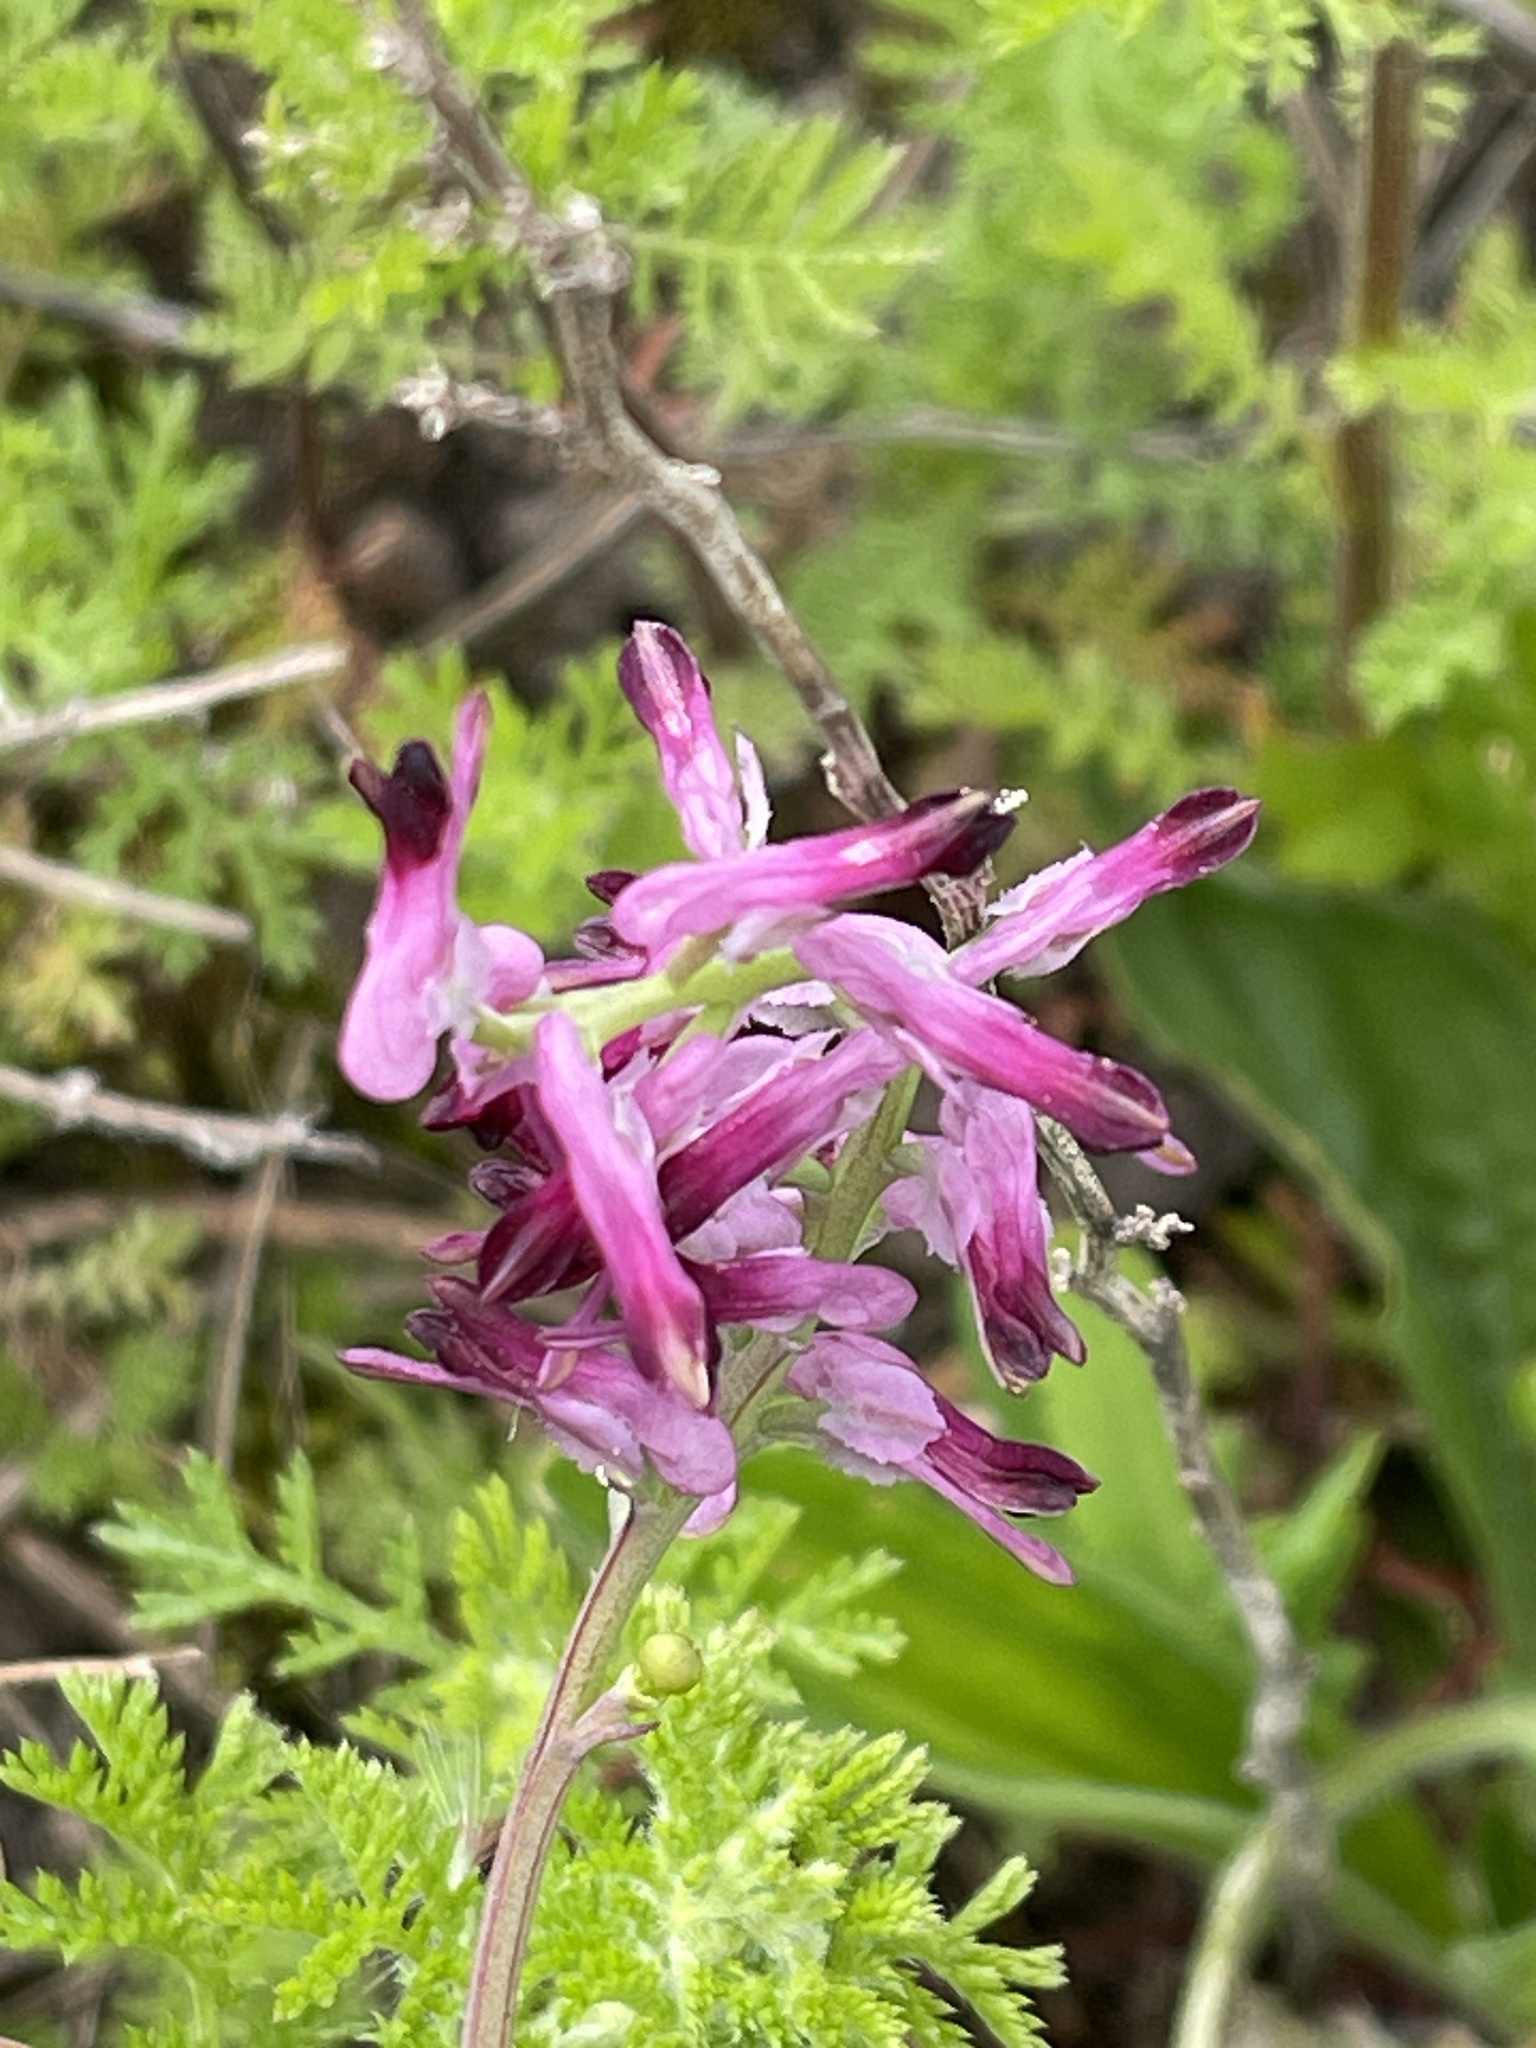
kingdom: Plantae
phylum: Tracheophyta
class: Magnoliopsida
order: Ranunculales
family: Papaveraceae
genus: Fumaria
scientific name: Fumaria muralis
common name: Common ramping-fumitory
